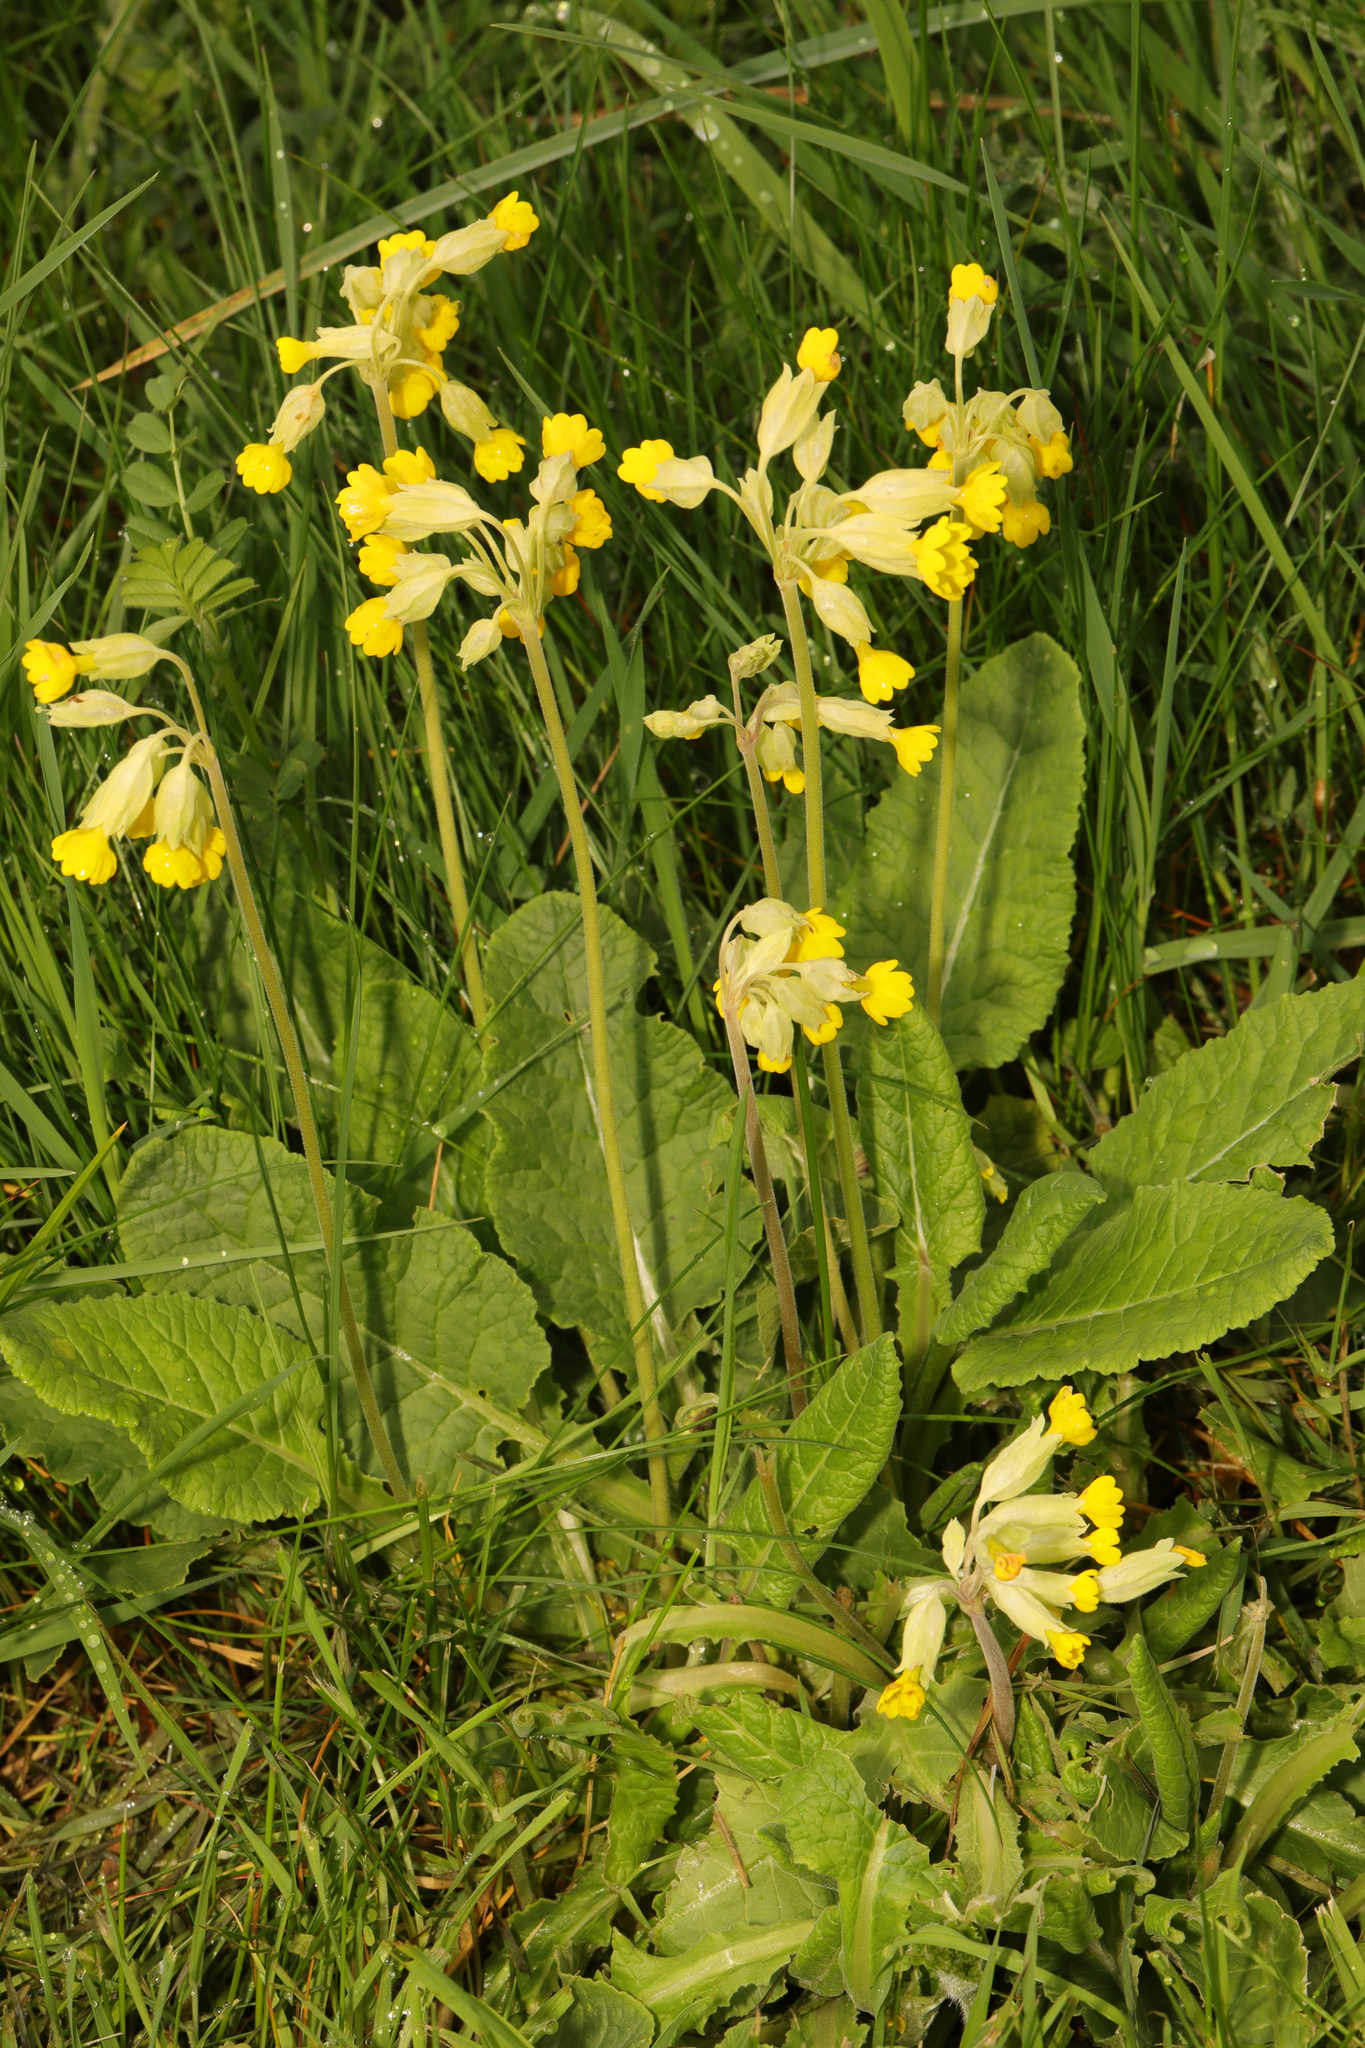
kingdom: Plantae
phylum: Tracheophyta
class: Magnoliopsida
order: Ericales
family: Primulaceae
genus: Primula
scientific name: Primula veris
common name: Cowslip
